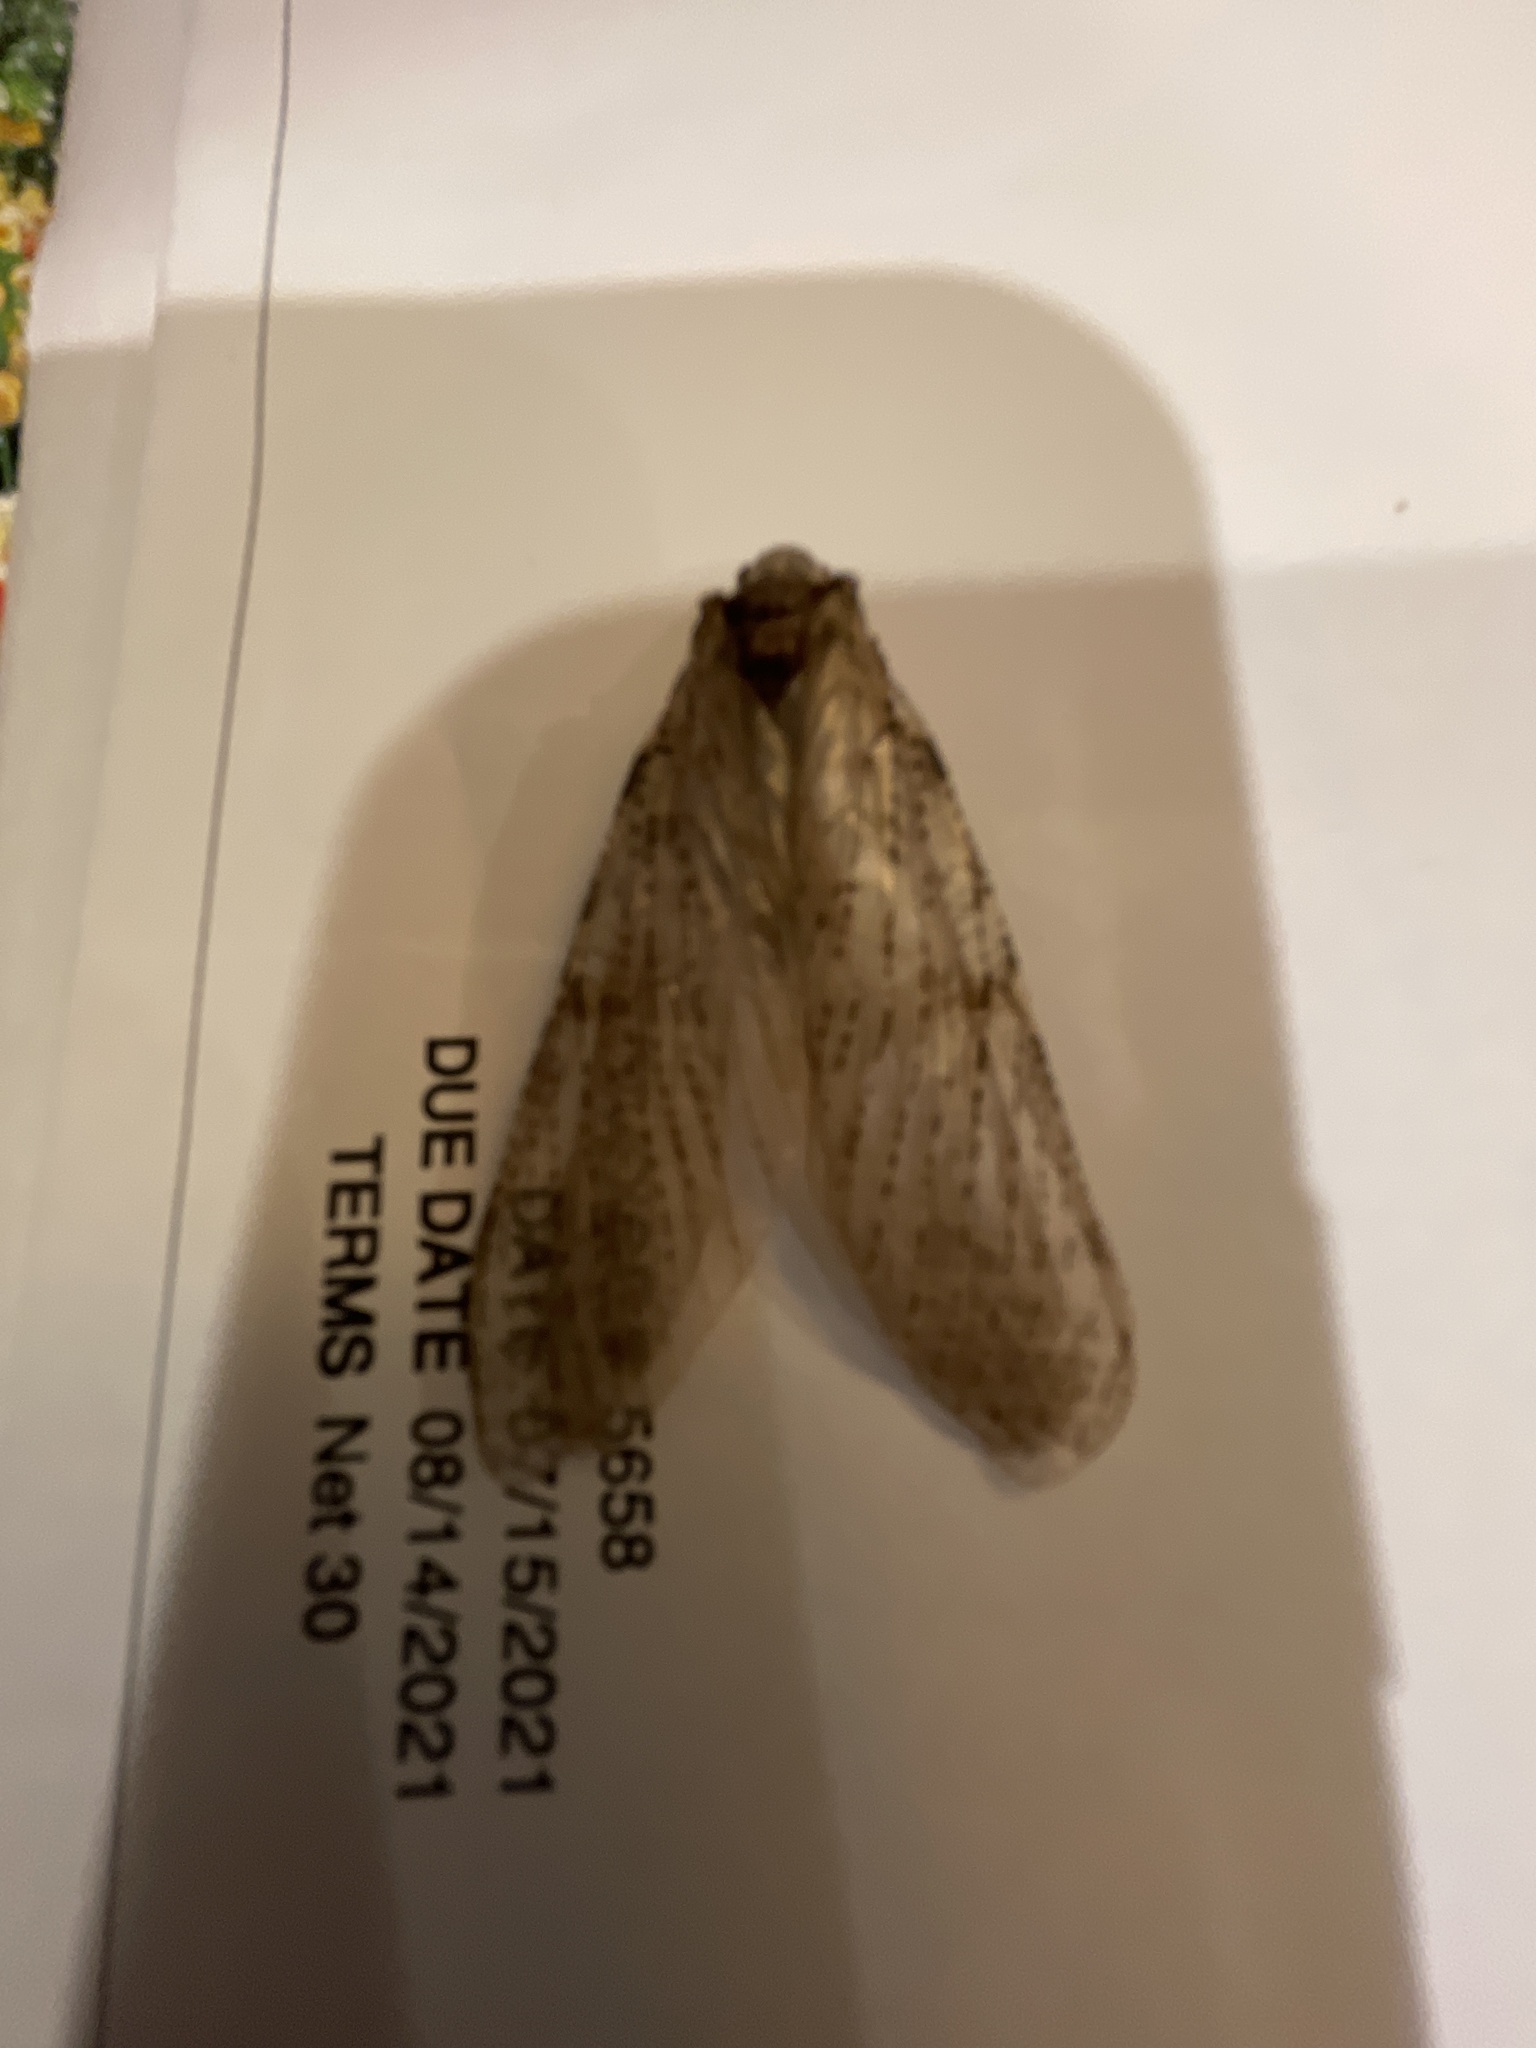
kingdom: Animalia
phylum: Arthropoda
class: Insecta
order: Megaloptera
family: Corydalidae
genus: Chauliodes
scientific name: Chauliodes
